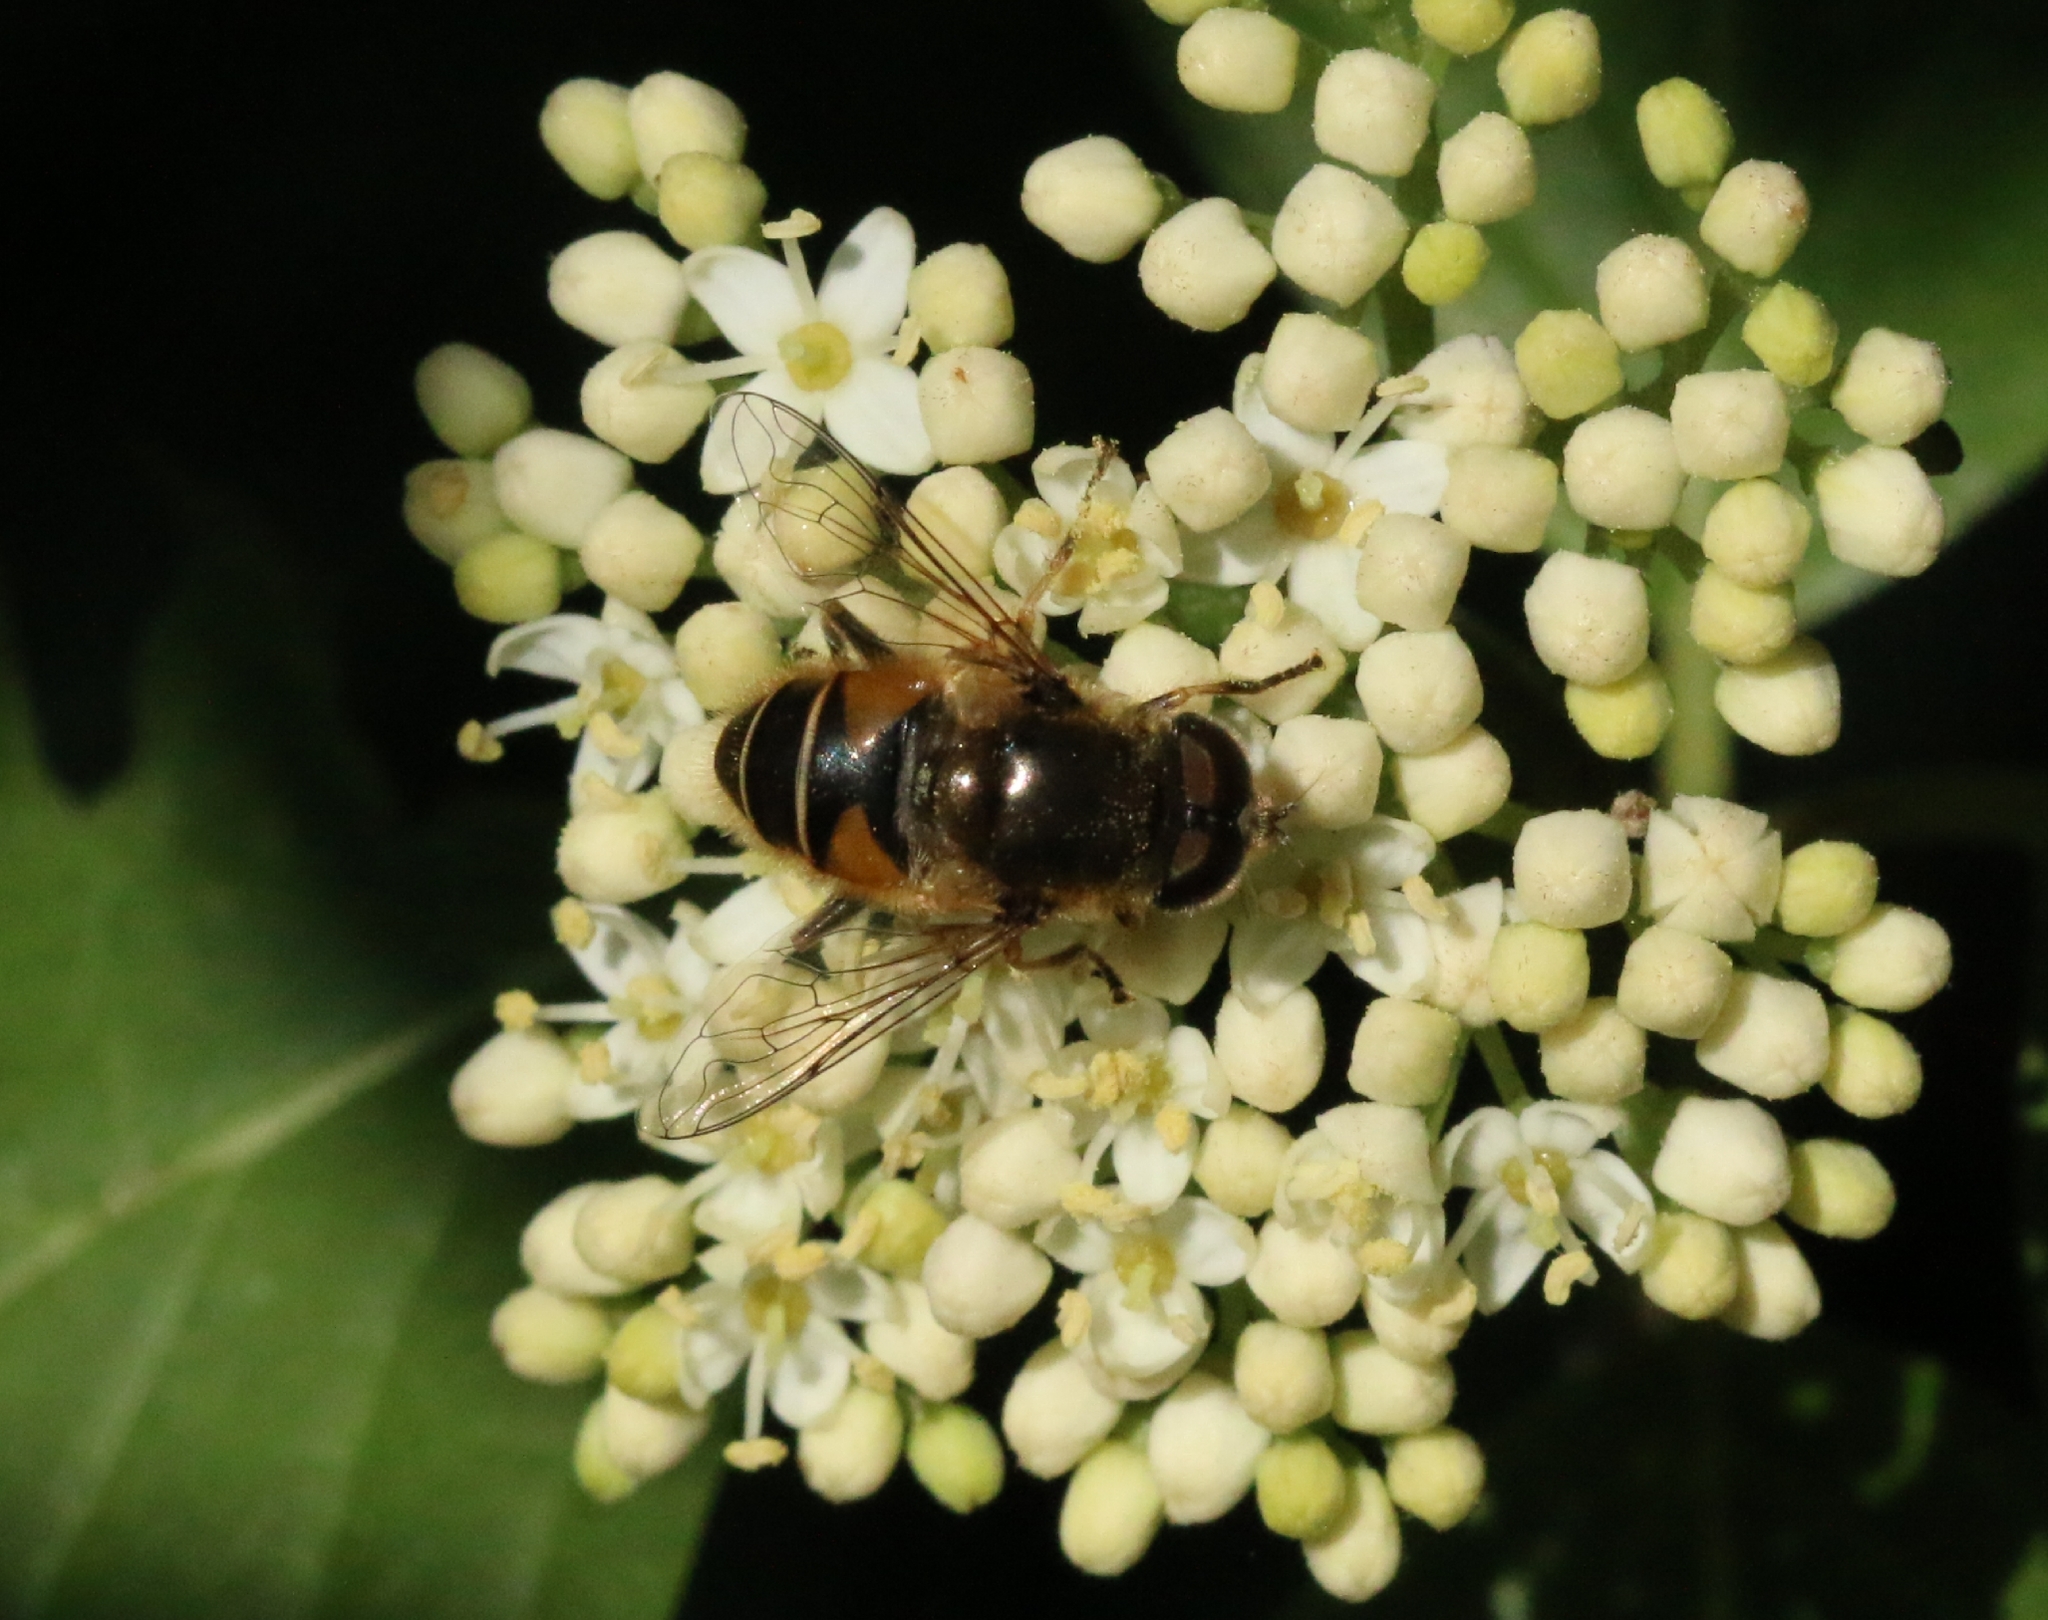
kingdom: Animalia
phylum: Arthropoda
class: Insecta
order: Diptera
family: Syrphidae
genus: Eristalis
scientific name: Eristalis nemorum
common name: Orange-spined drone fly
